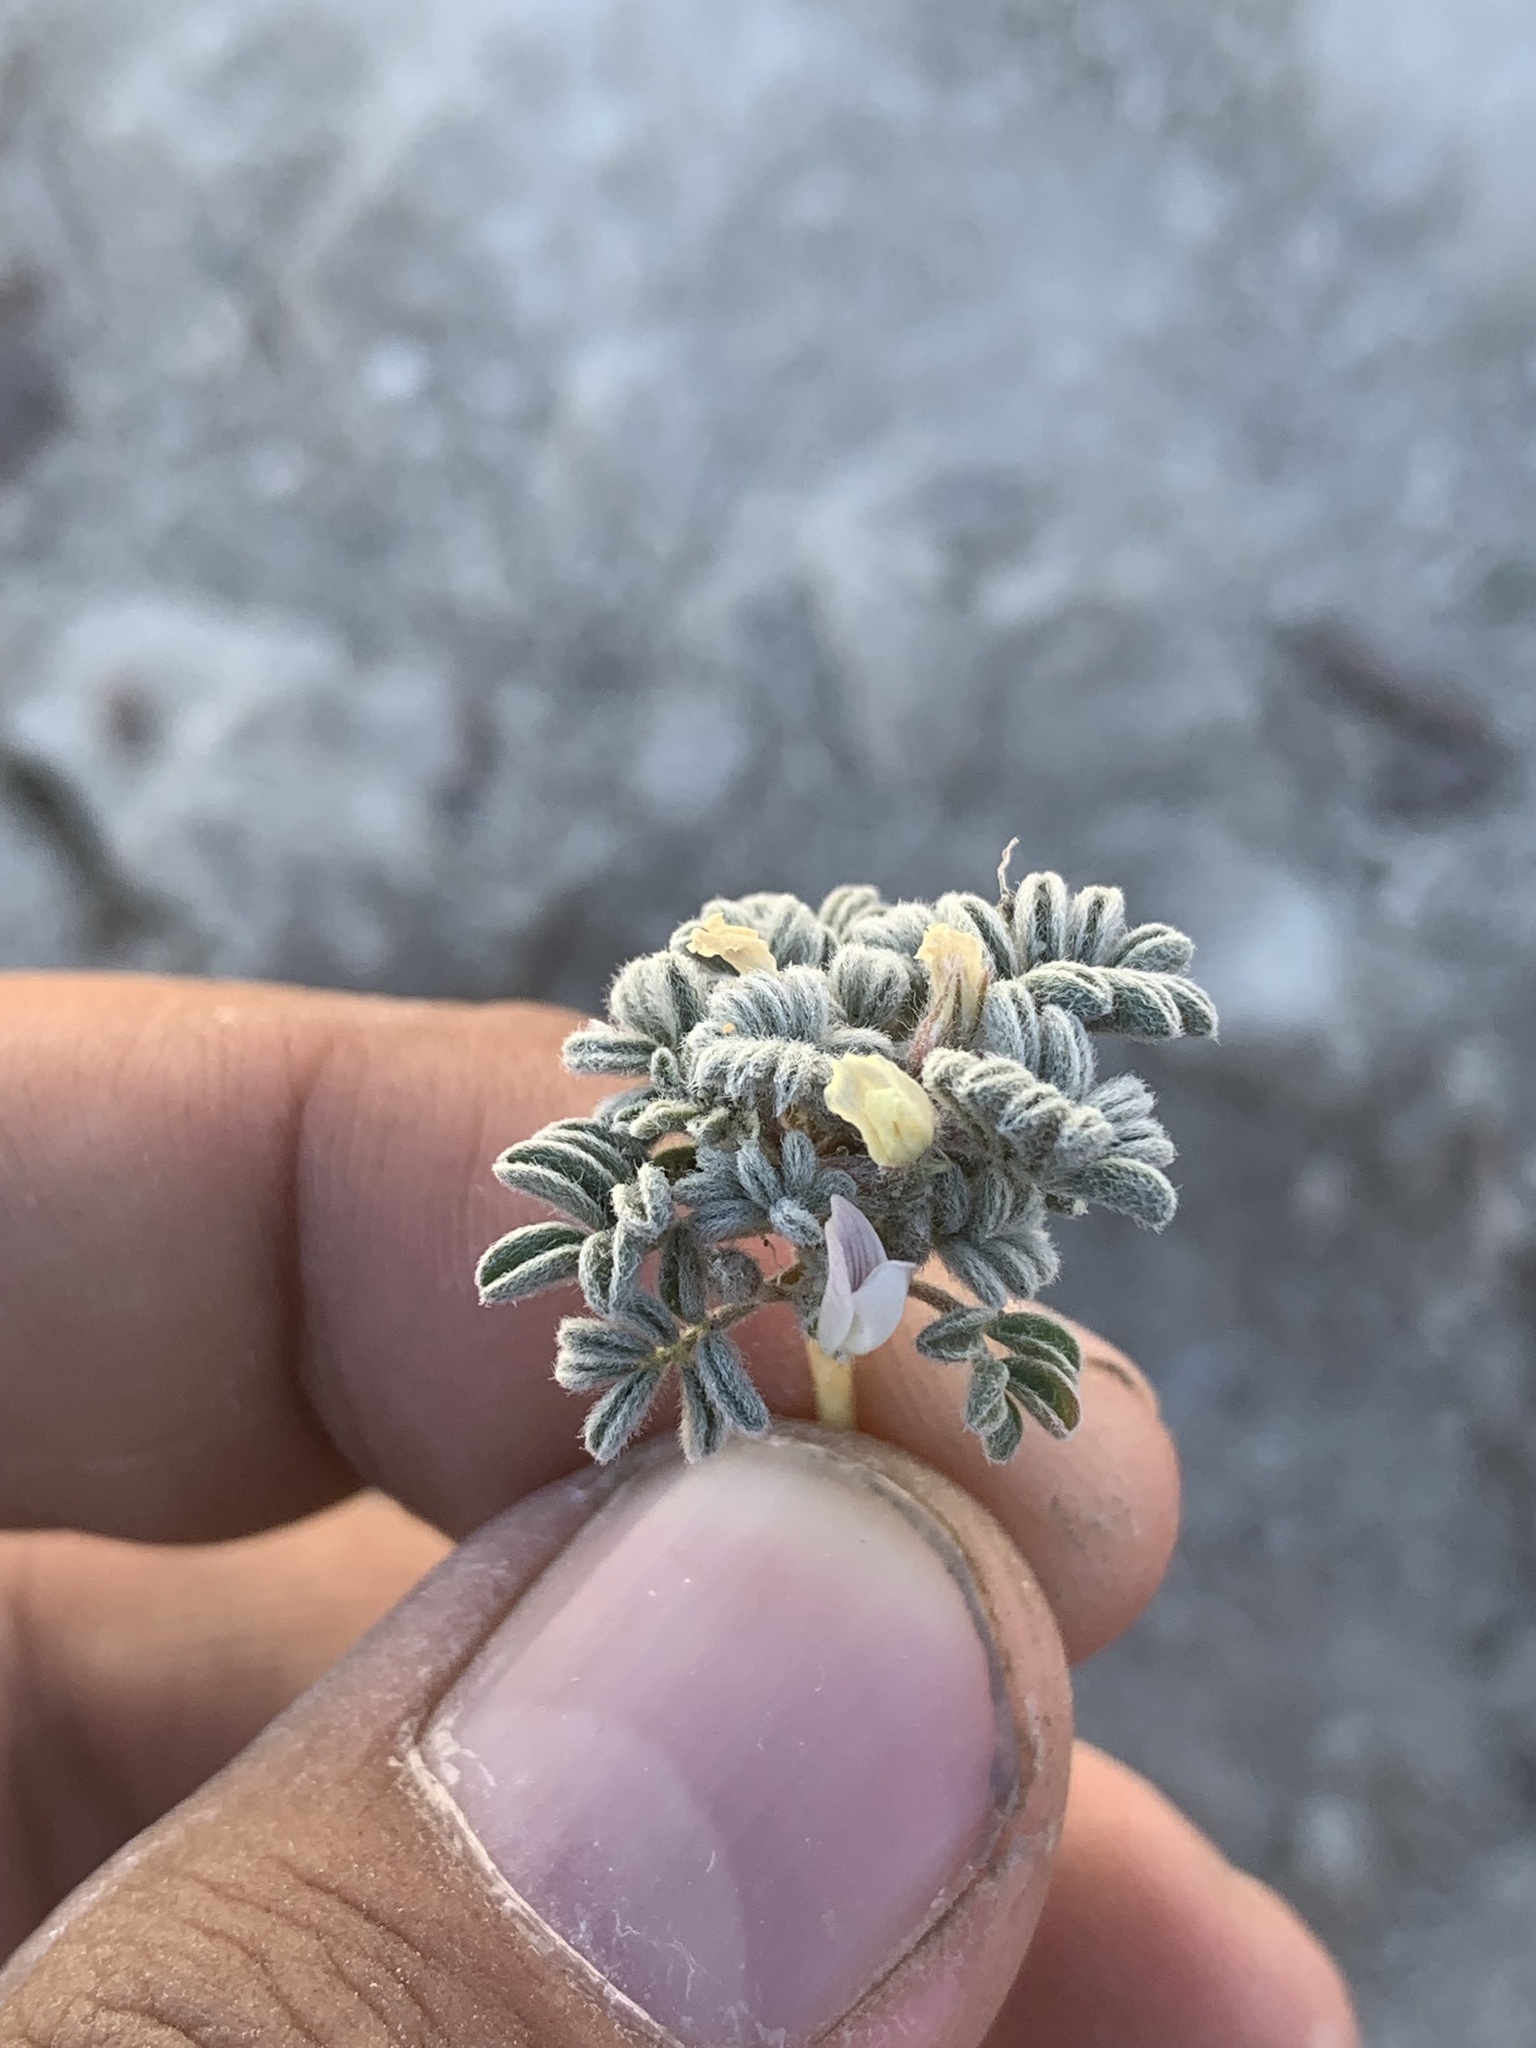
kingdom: Plantae
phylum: Tracheophyta
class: Magnoliopsida
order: Fabales
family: Fabaceae
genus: Astragalus
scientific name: Astragalus tiehmii
